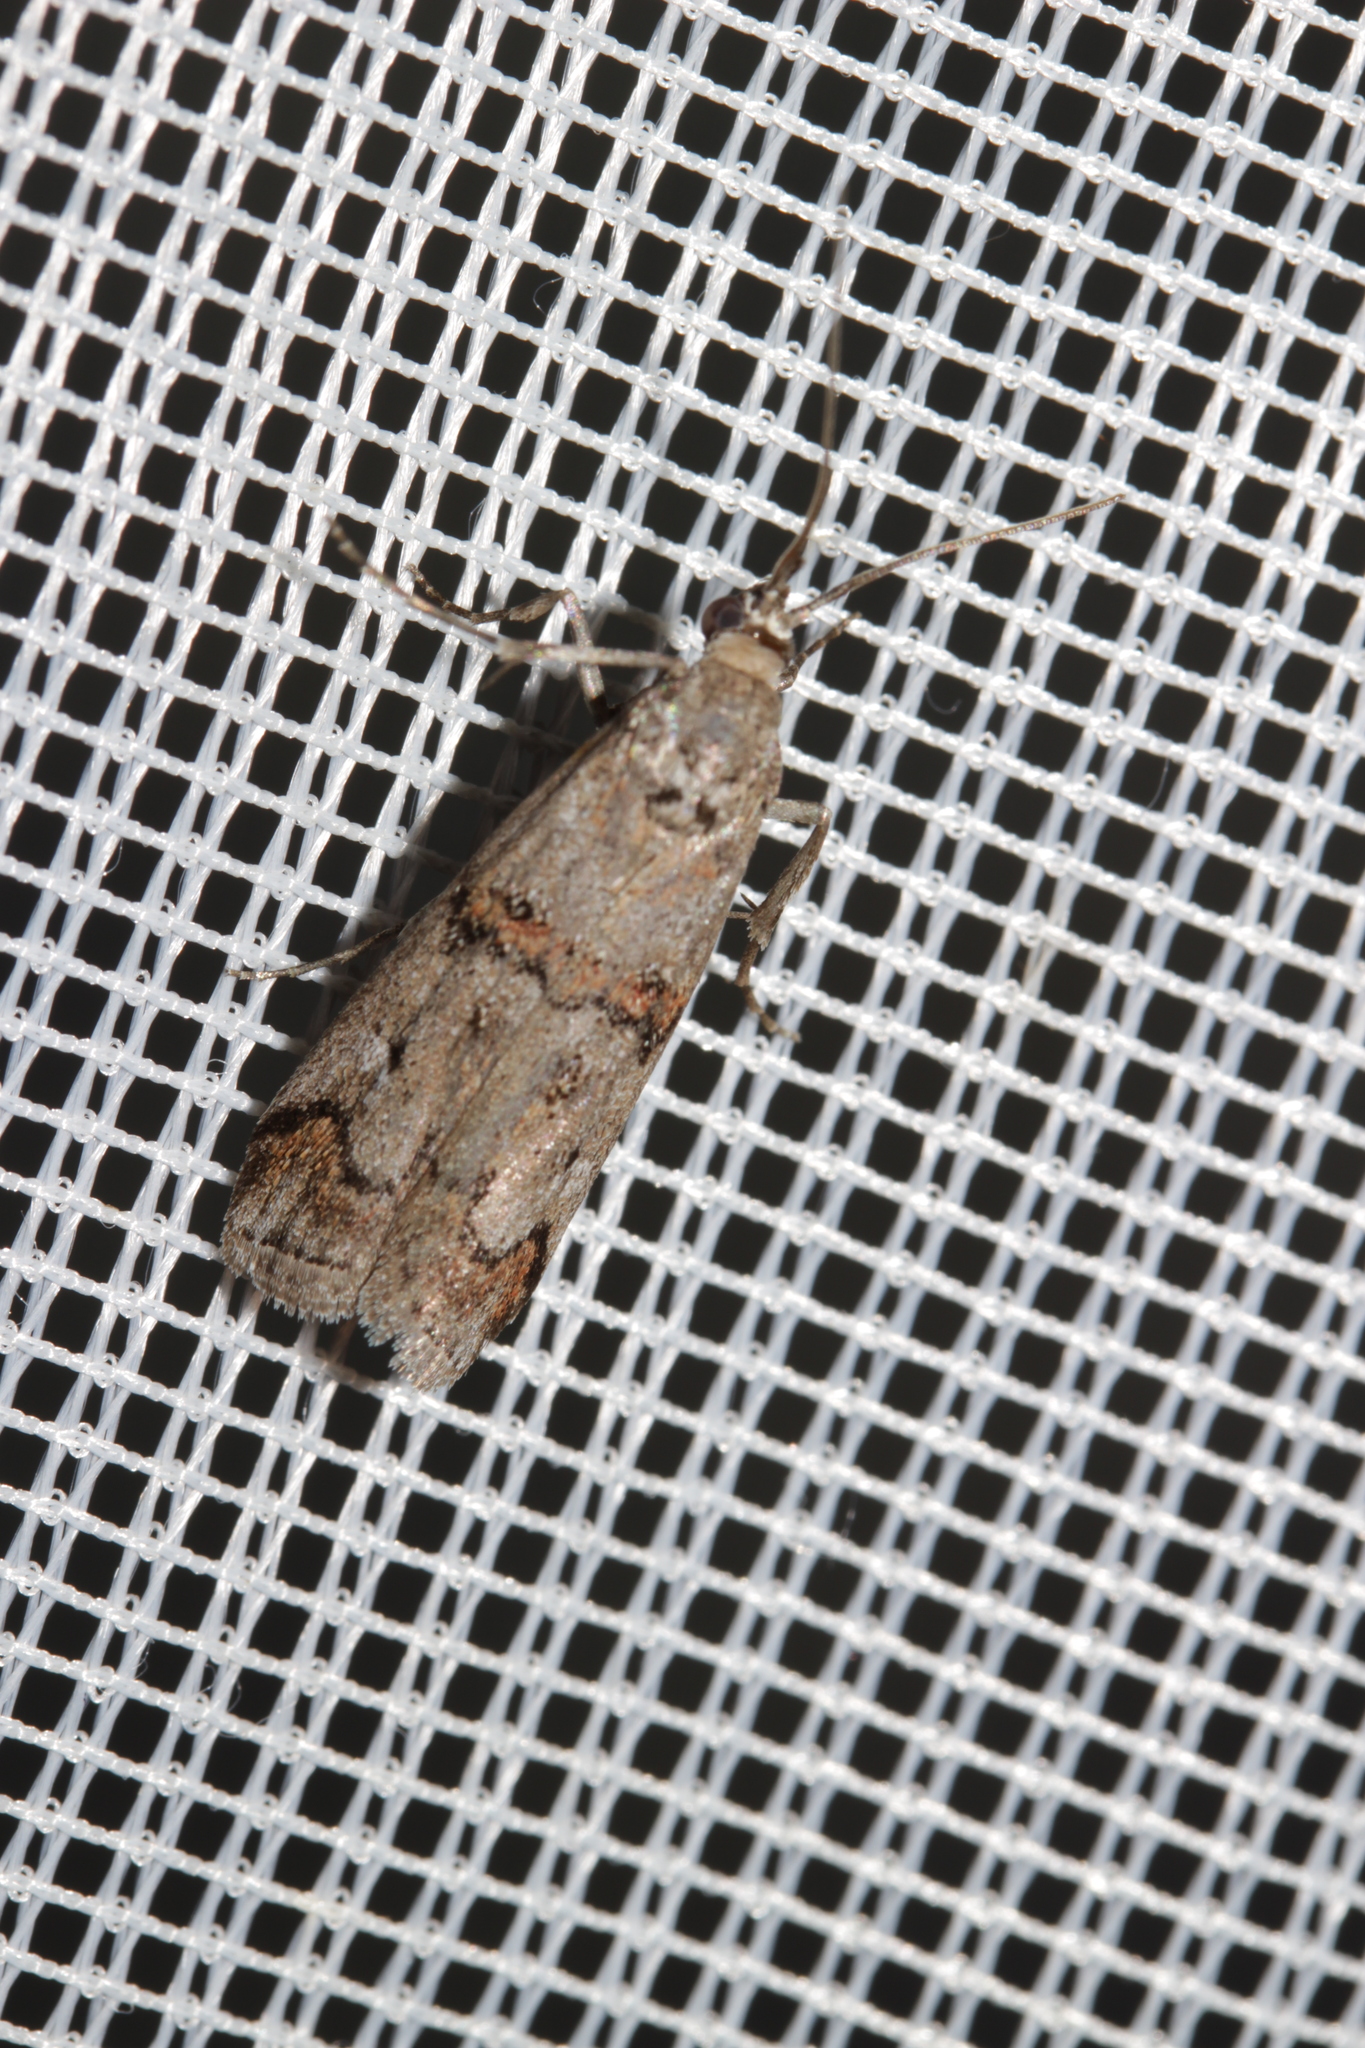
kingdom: Animalia
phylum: Arthropoda
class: Insecta
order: Lepidoptera
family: Pyralidae
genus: Pempelia
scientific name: Pempelia palumbella
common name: Heather knot-horn
